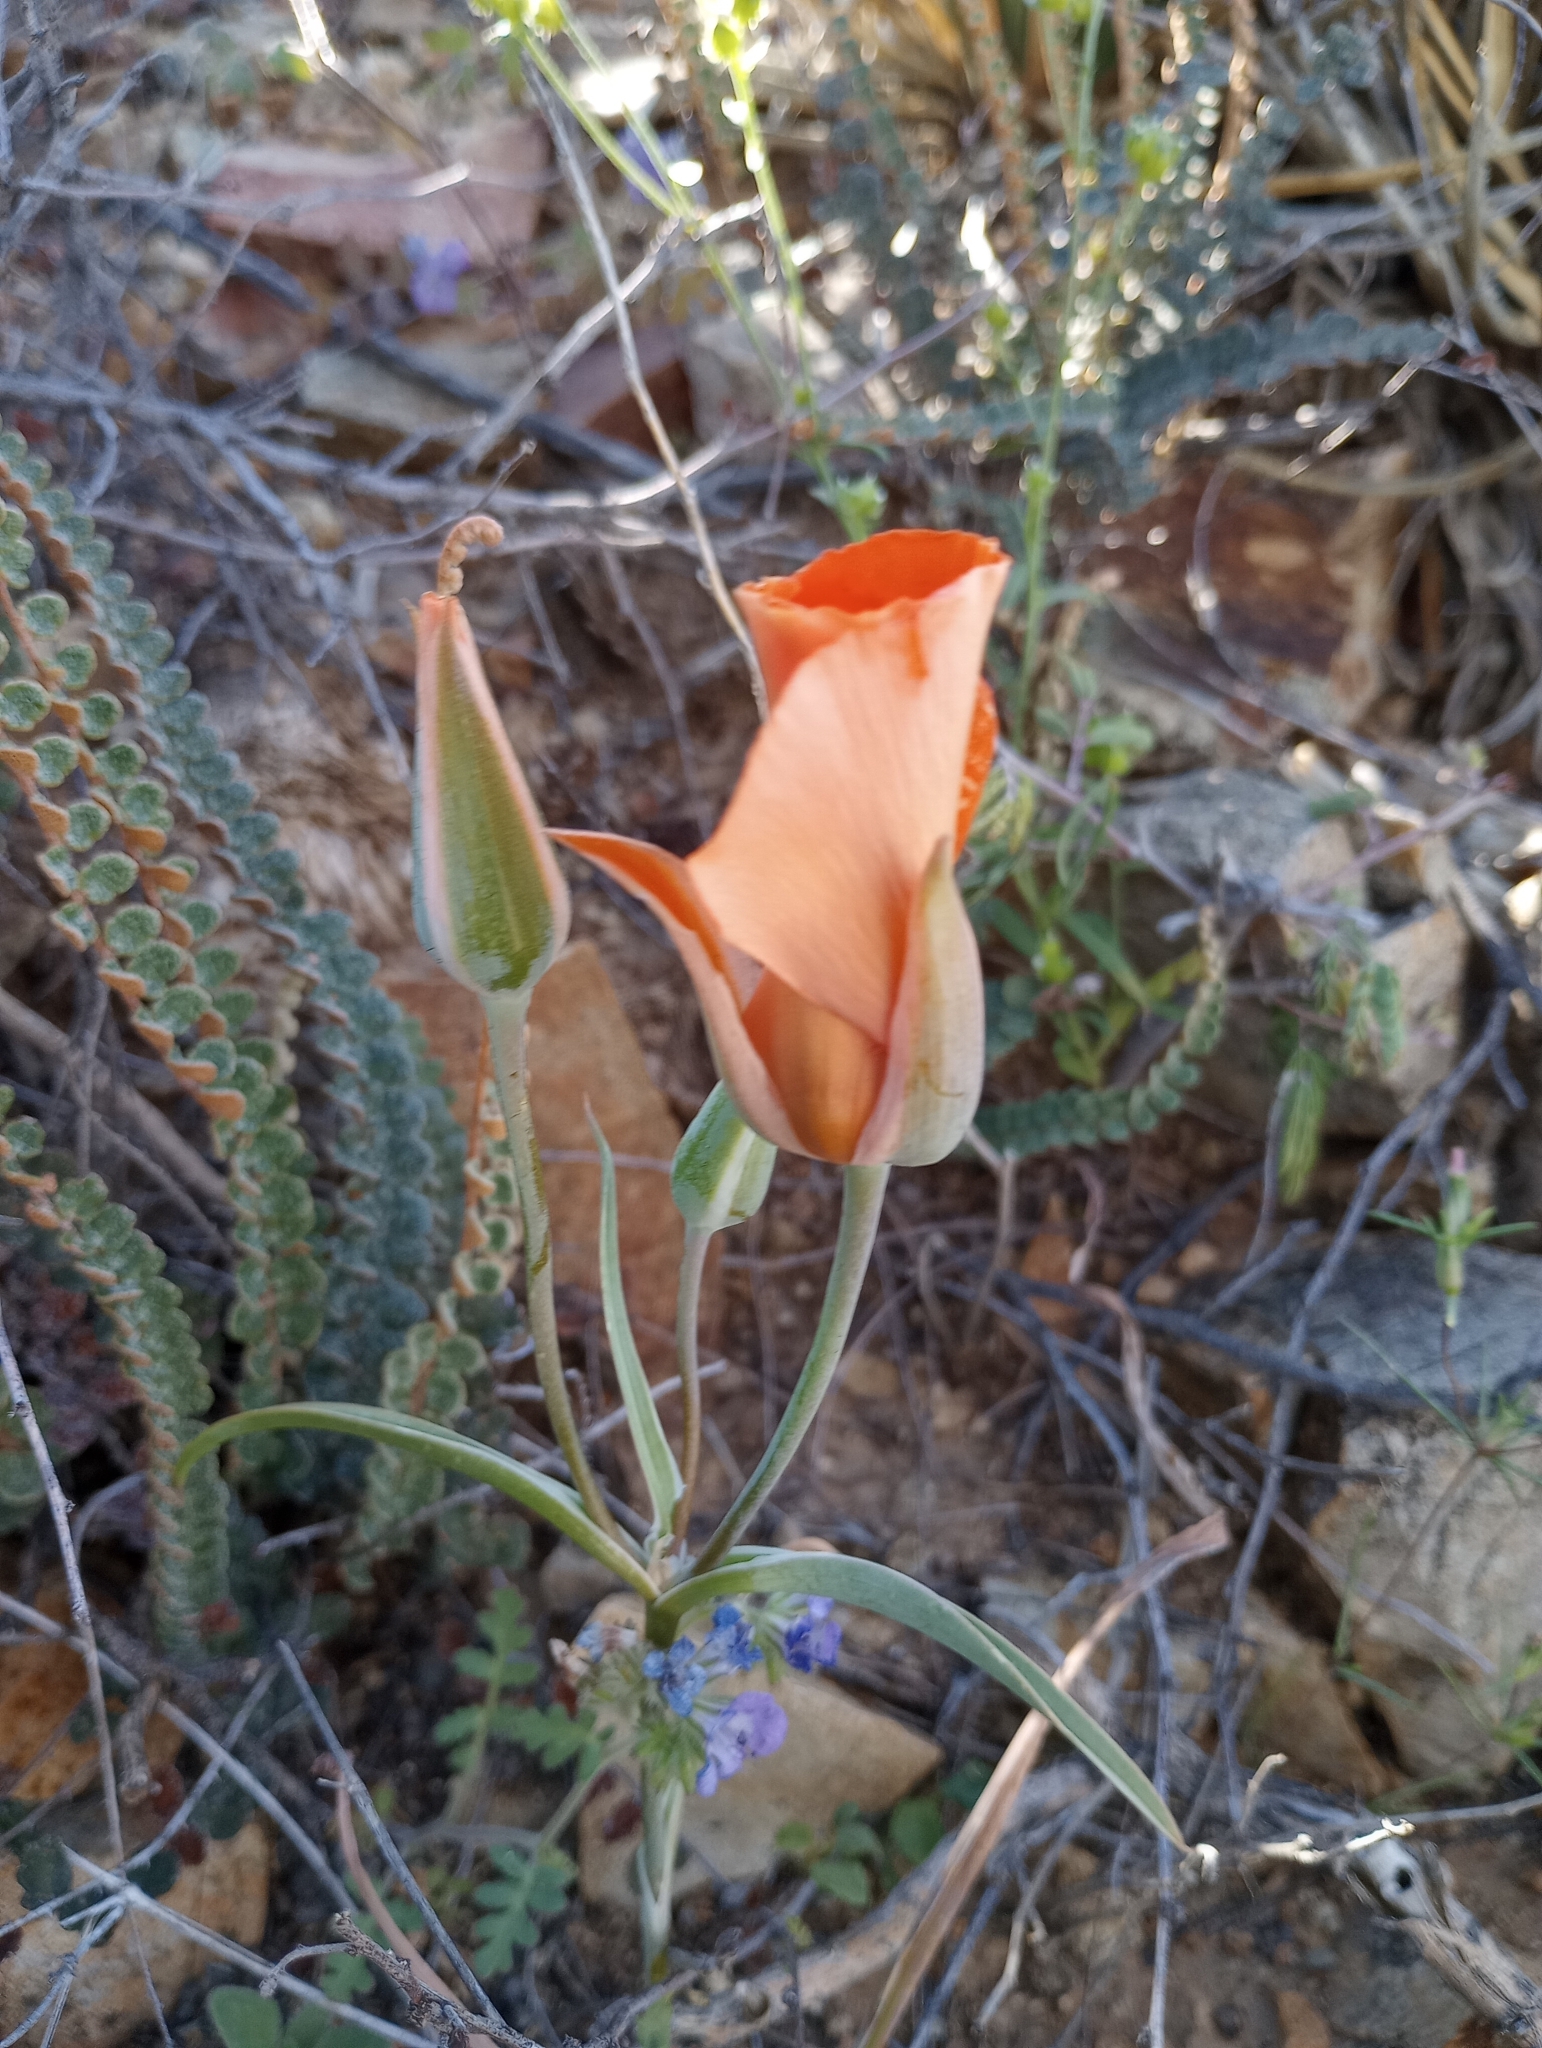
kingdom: Plantae
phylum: Tracheophyta
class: Liliopsida
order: Liliales
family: Liliaceae
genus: Calochortus
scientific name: Calochortus kennedyi
